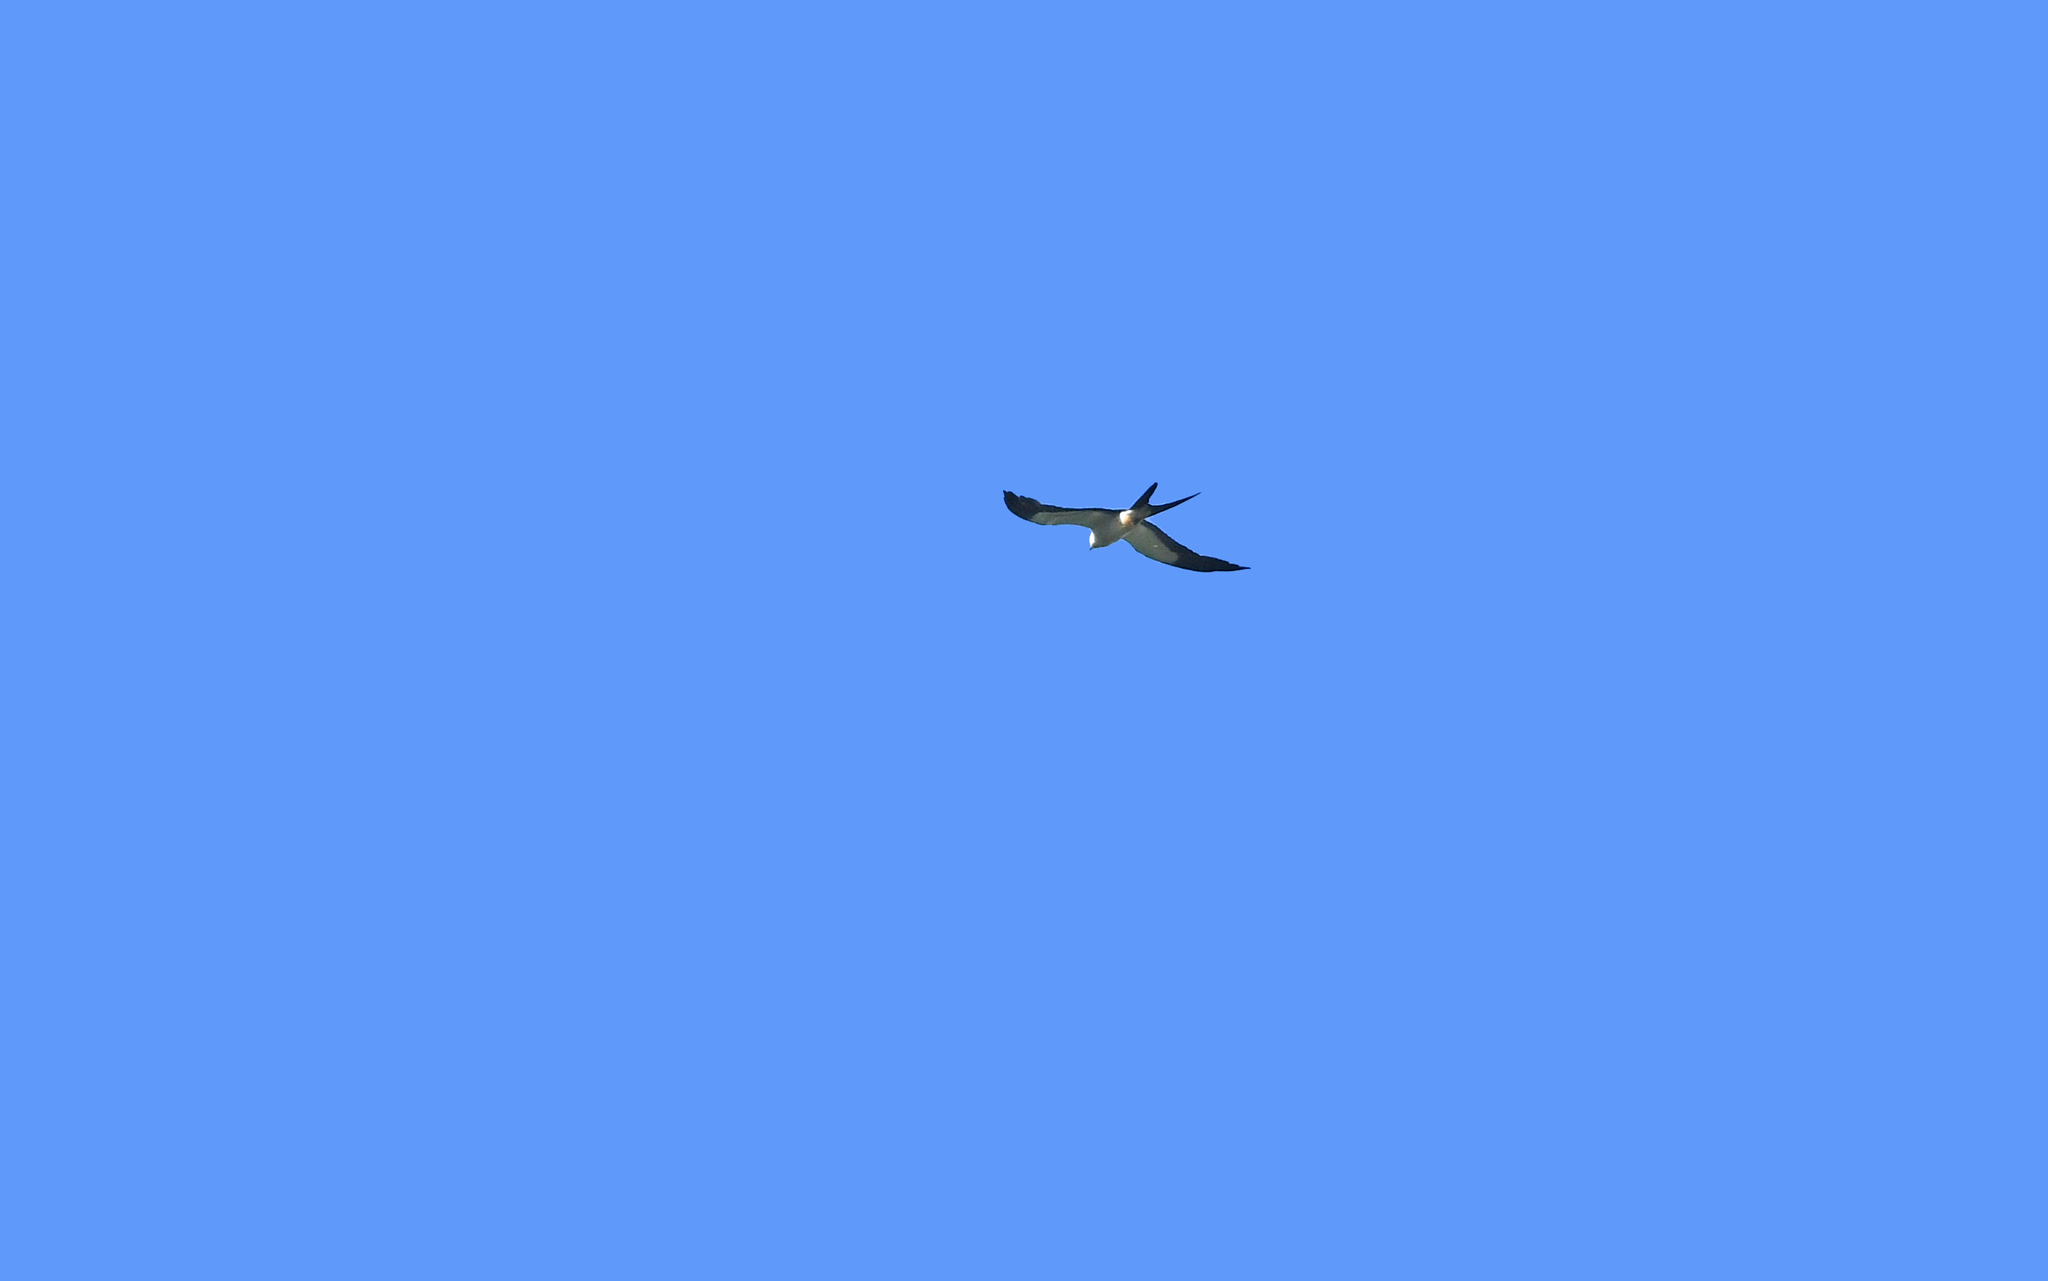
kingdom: Animalia
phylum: Chordata
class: Aves
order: Accipitriformes
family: Accipitridae
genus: Elanoides
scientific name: Elanoides forficatus
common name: Swallow-tailed kite
